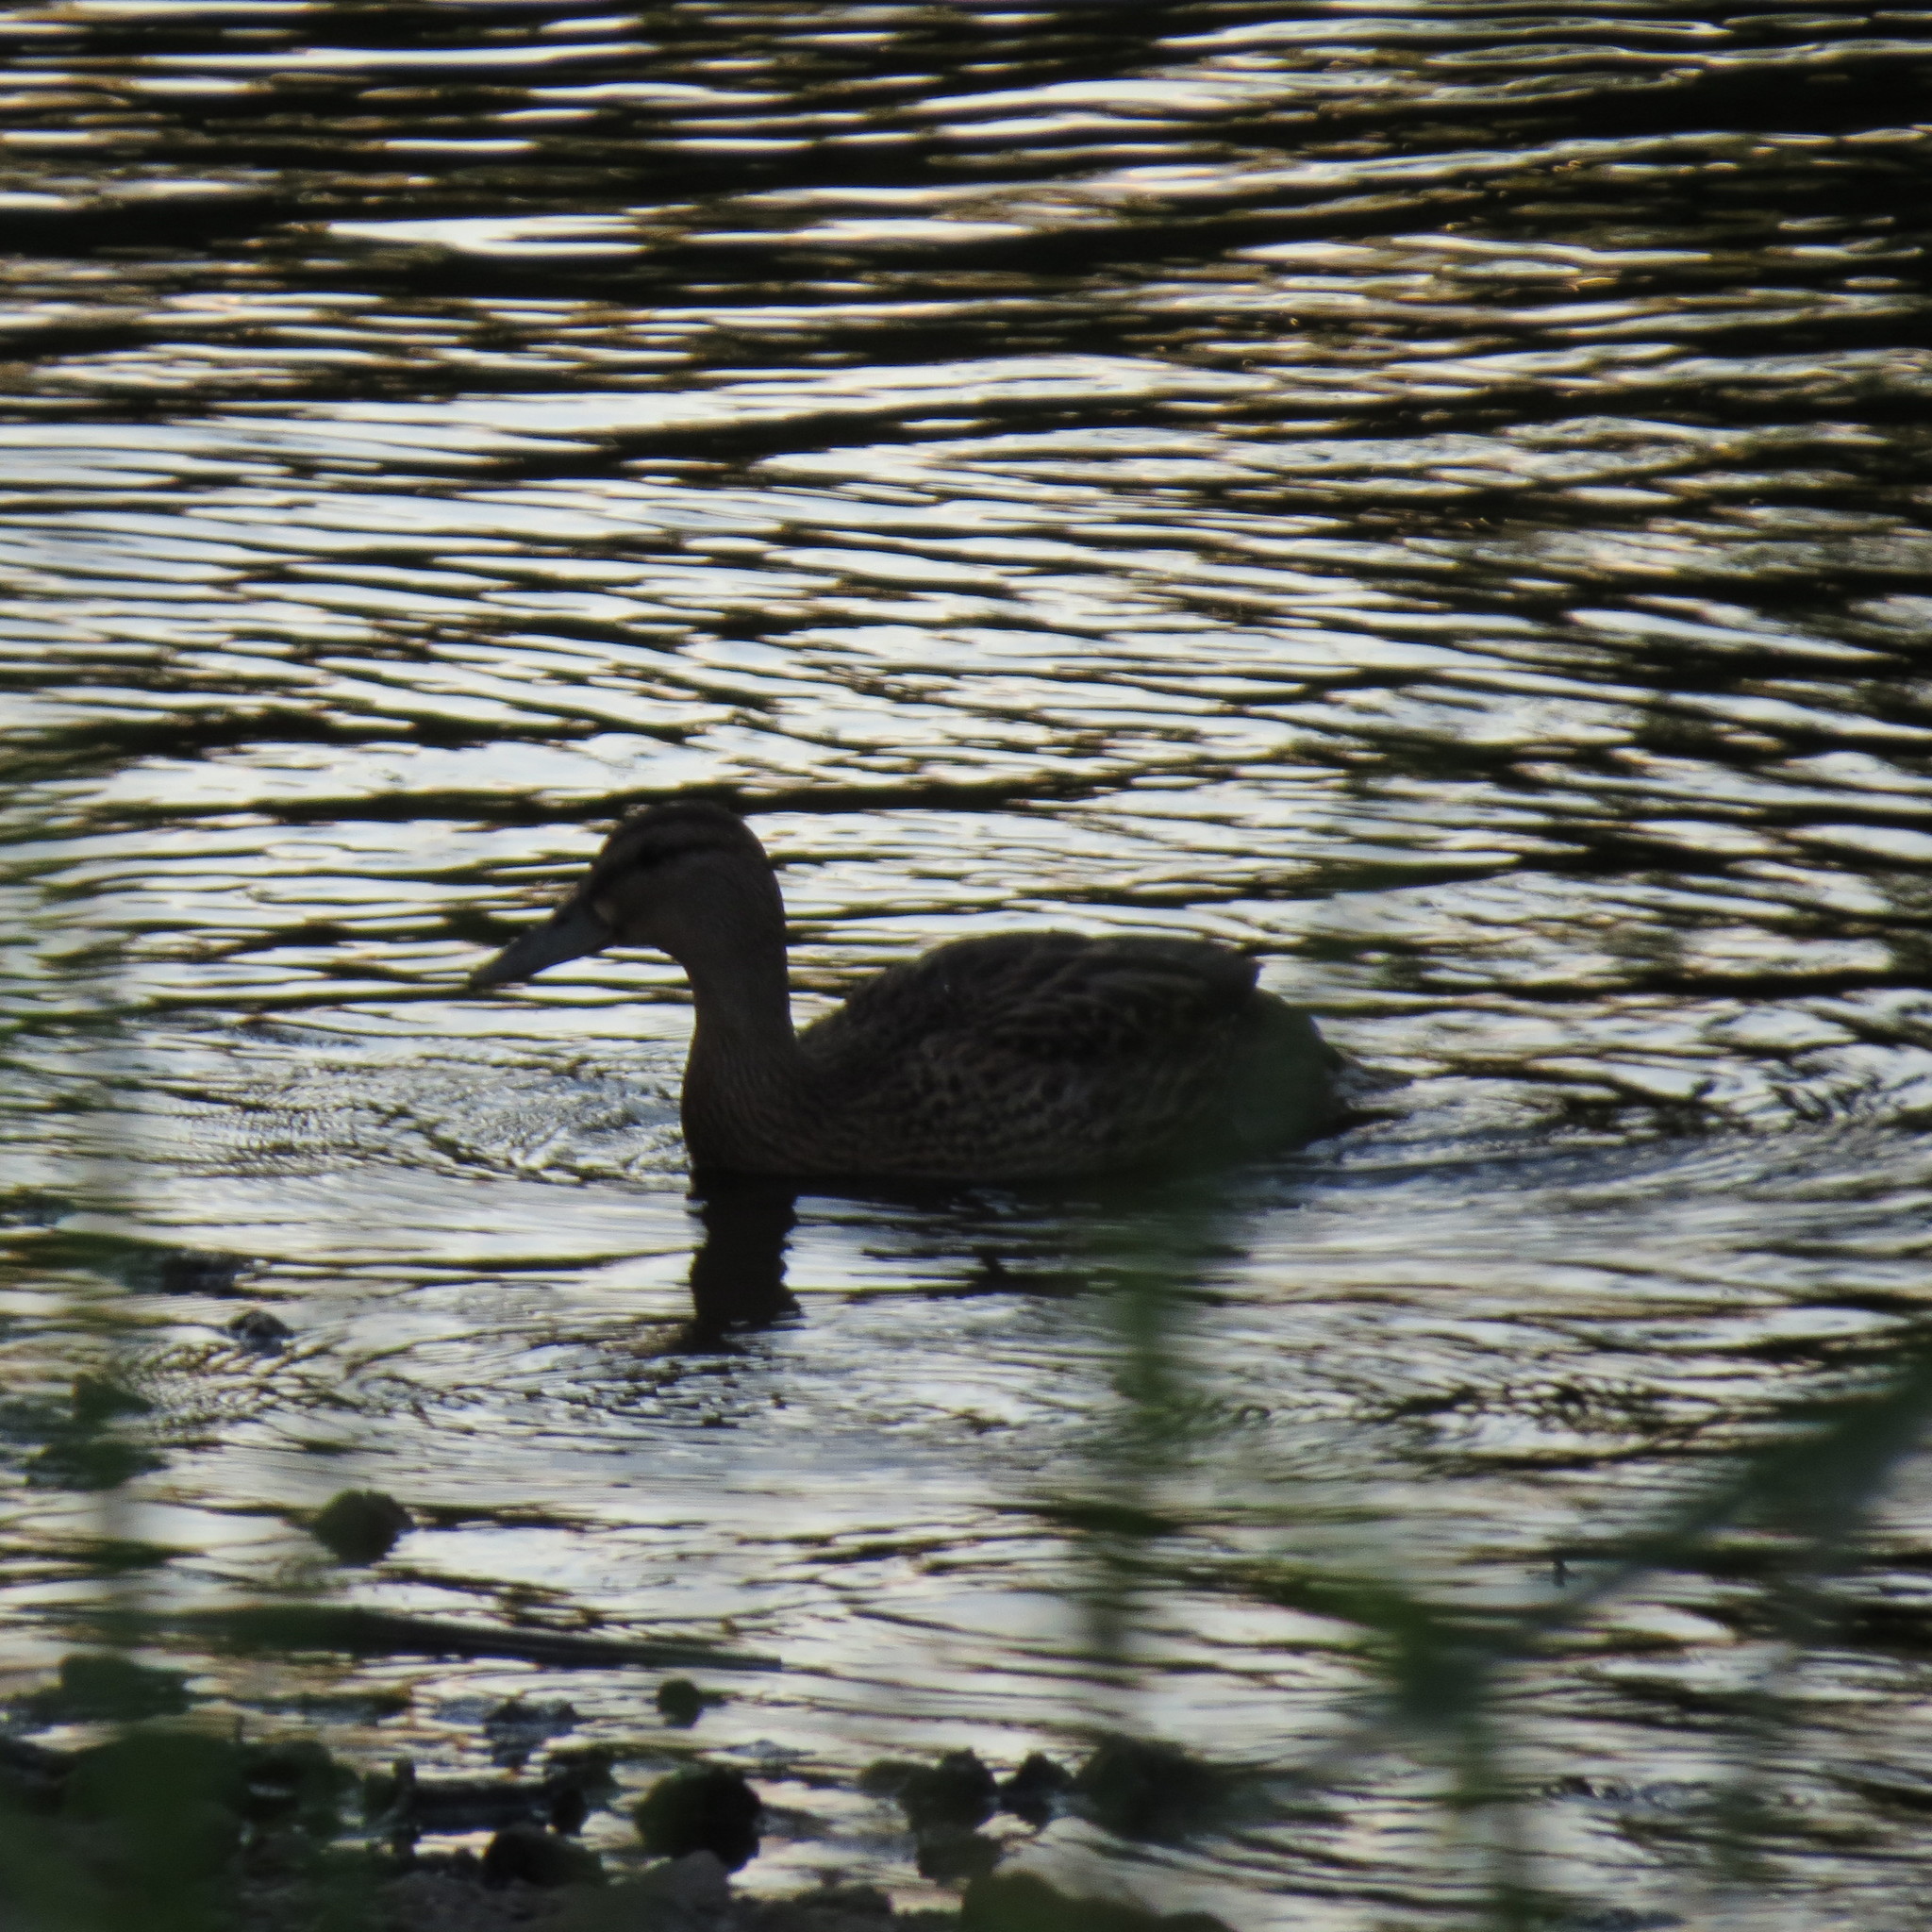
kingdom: Animalia
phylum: Chordata
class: Aves
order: Anseriformes
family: Anatidae
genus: Anas
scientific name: Anas platyrhynchos
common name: Mallard
